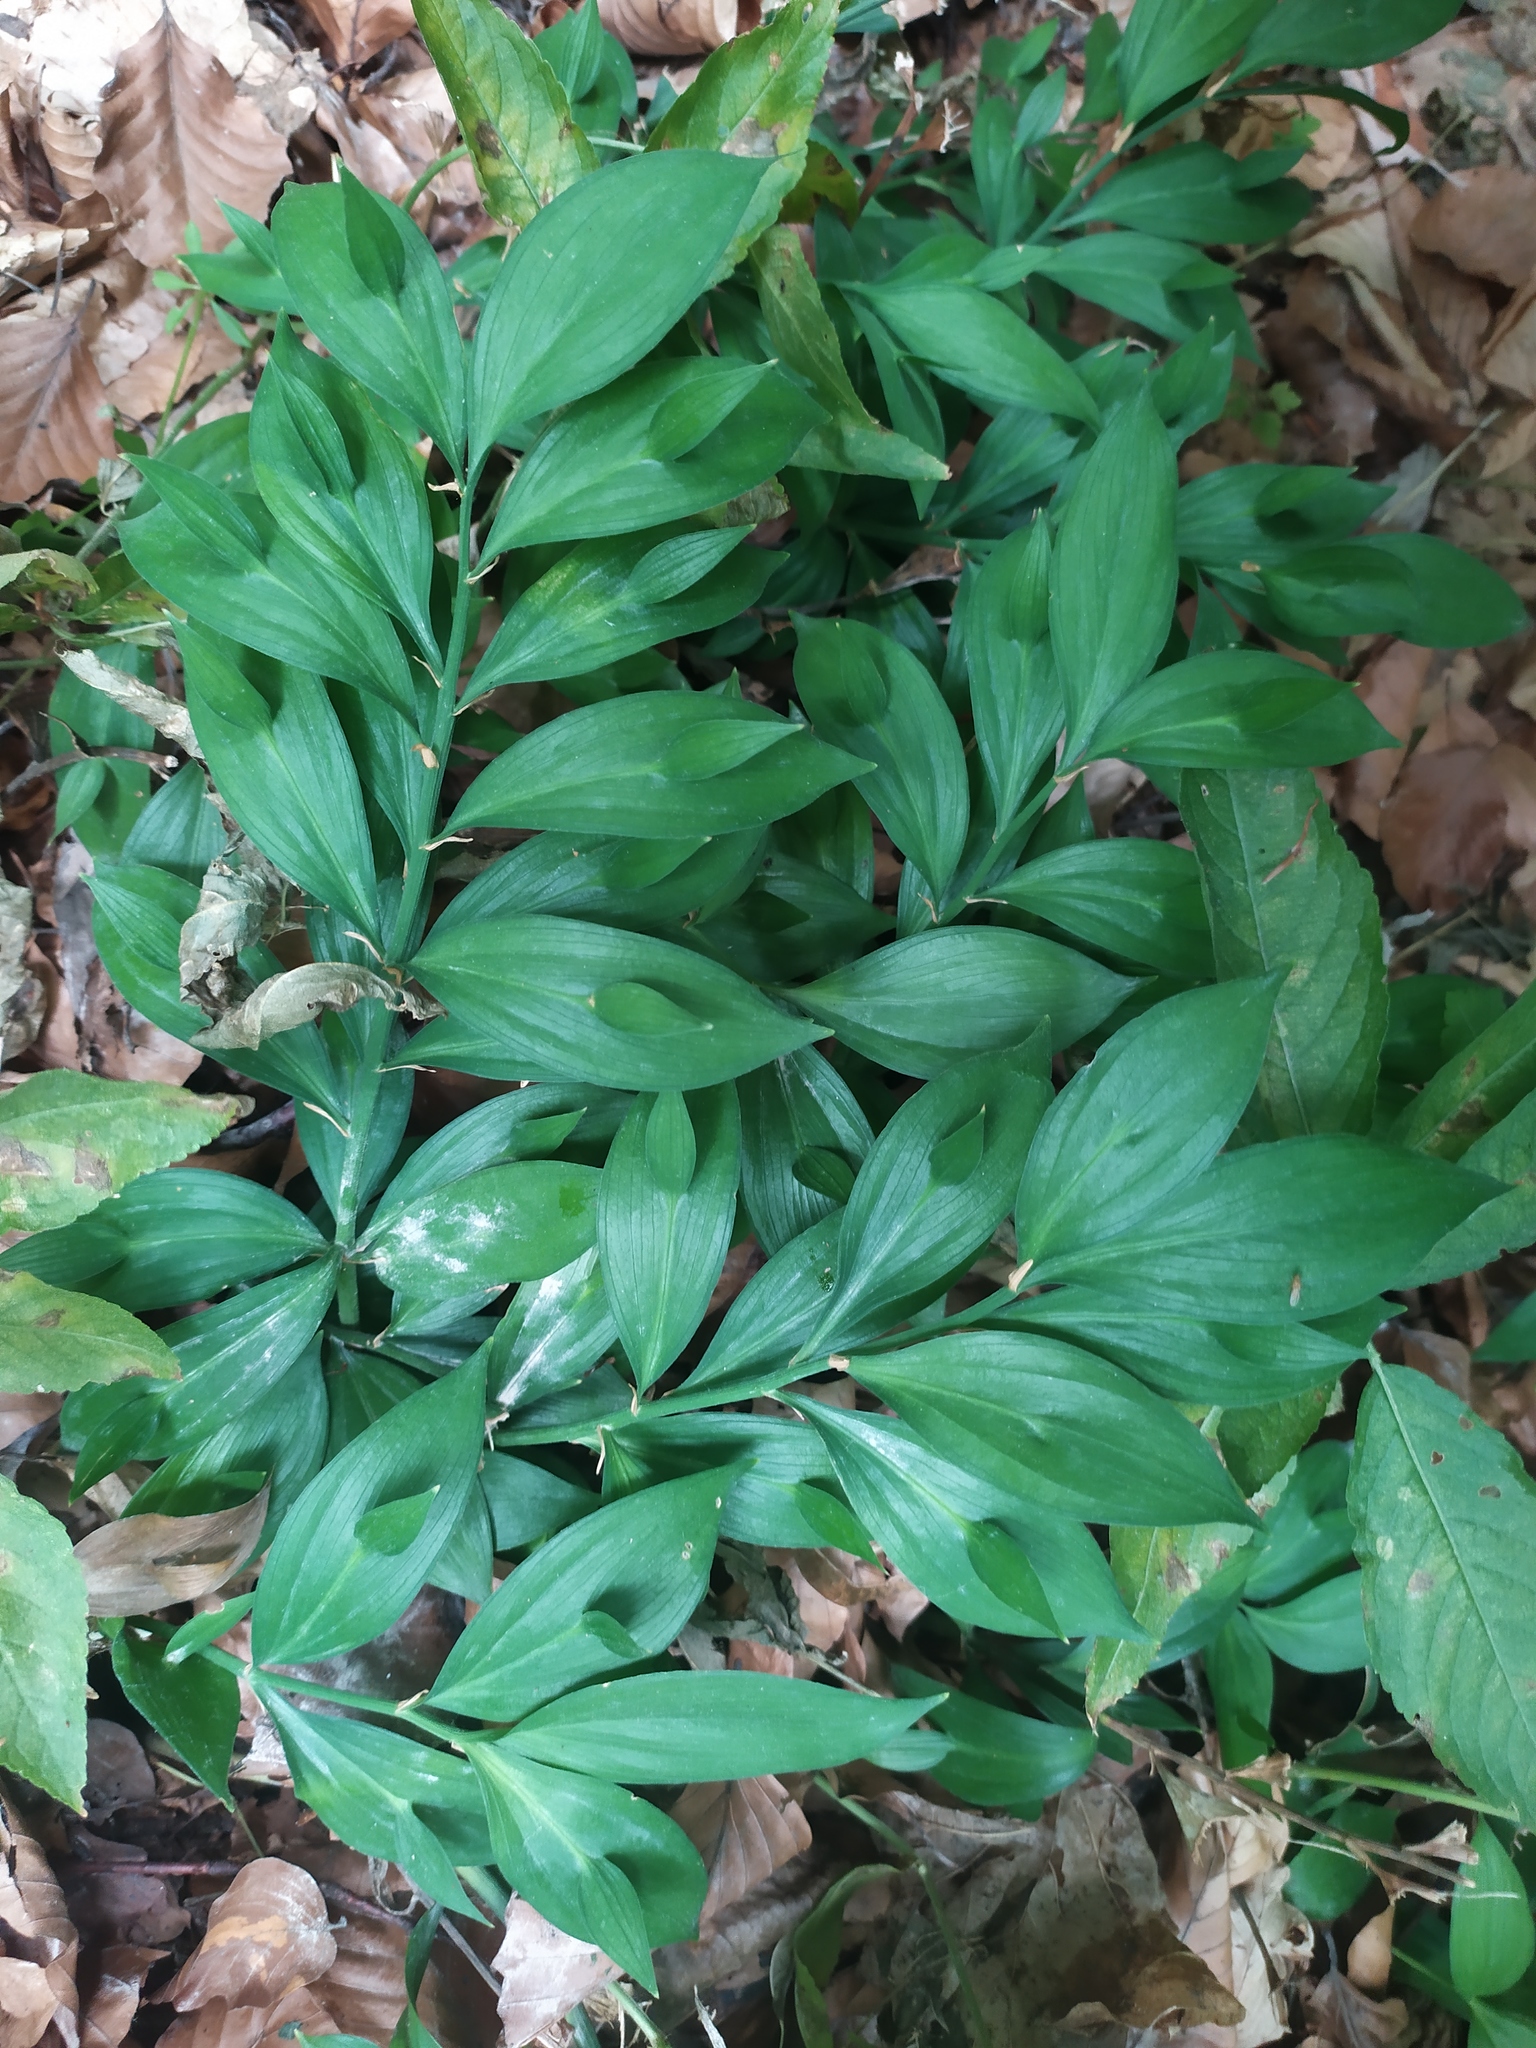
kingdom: Plantae
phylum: Tracheophyta
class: Liliopsida
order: Asparagales
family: Asparagaceae
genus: Ruscus
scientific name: Ruscus hypoglossum
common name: Spineless butcher's-broom
